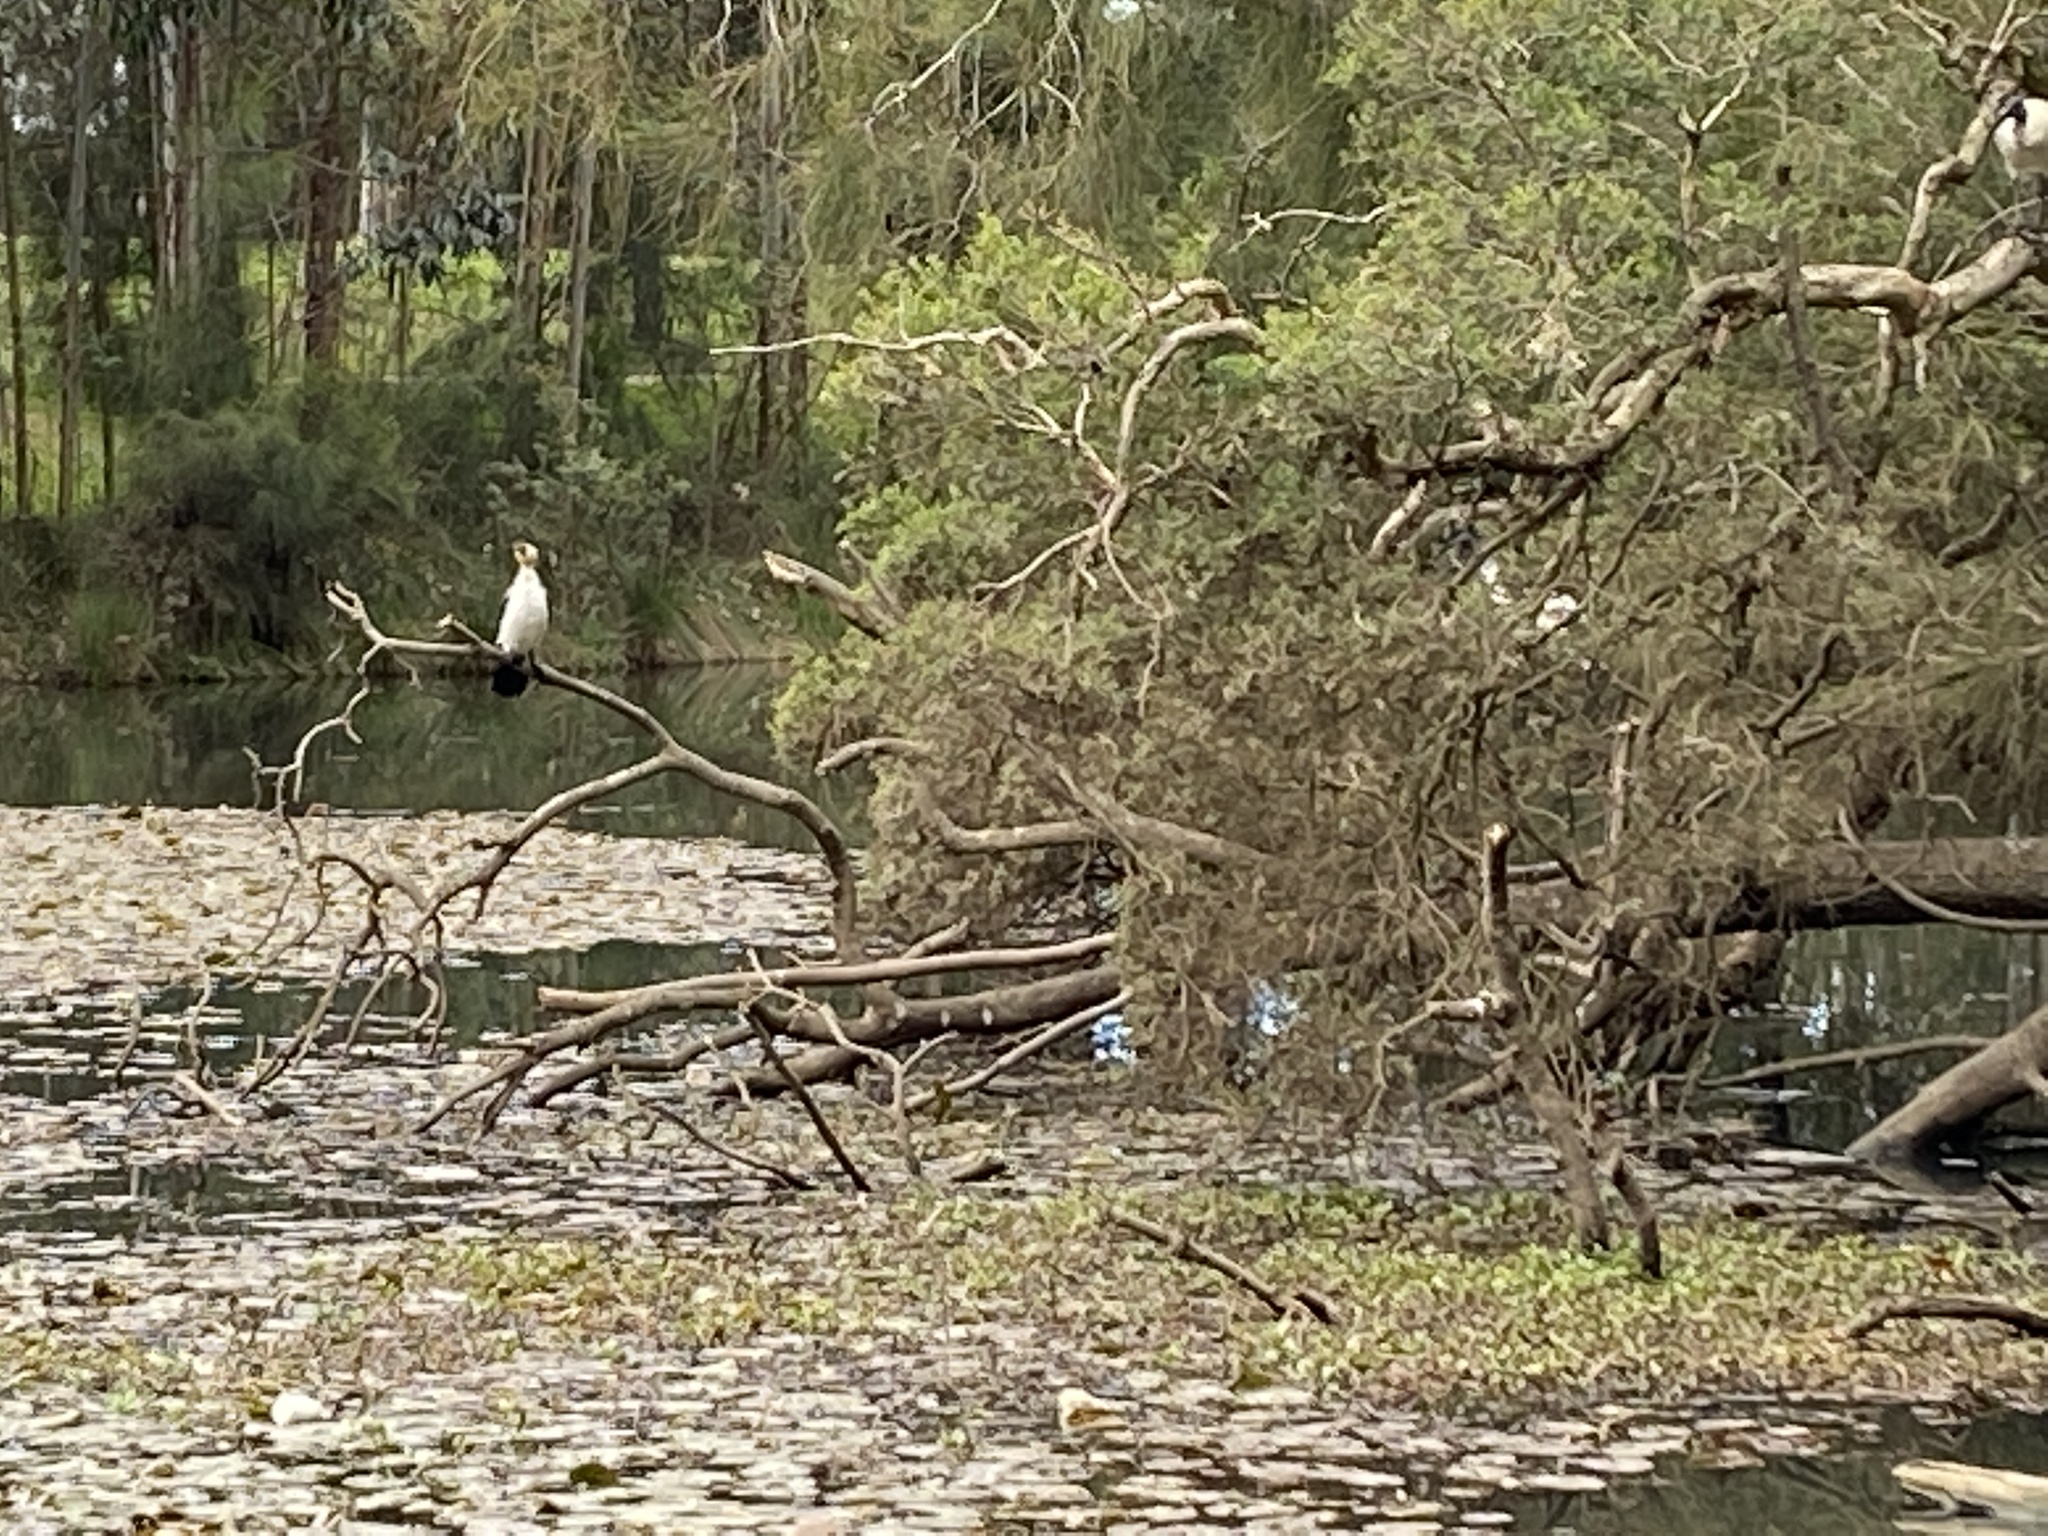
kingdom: Animalia
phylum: Chordata
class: Aves
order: Suliformes
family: Phalacrocoracidae
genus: Microcarbo
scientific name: Microcarbo melanoleucos
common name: Little pied cormorant
